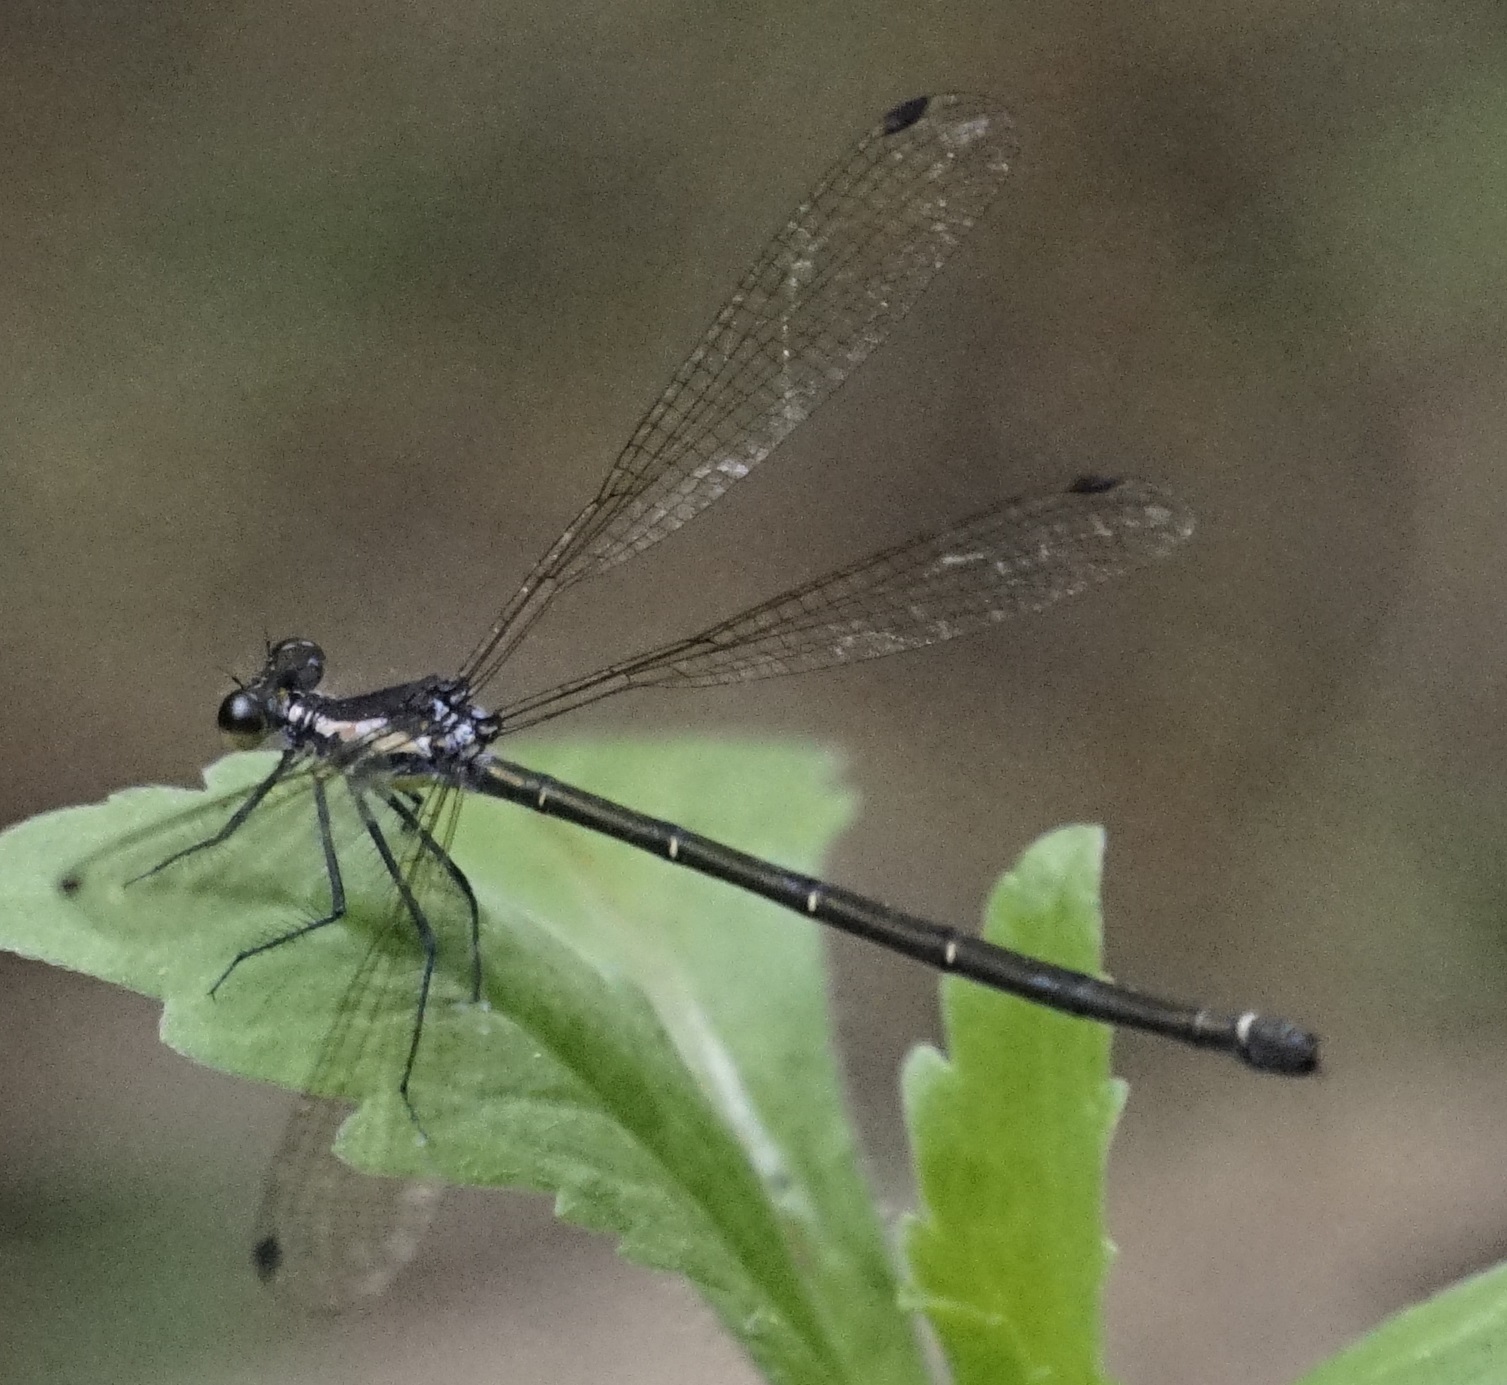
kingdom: Animalia
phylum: Arthropoda
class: Insecta
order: Odonata
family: Argiolestidae
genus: Austroargiolestes
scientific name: Austroargiolestes icteromelas
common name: Common flatwing
